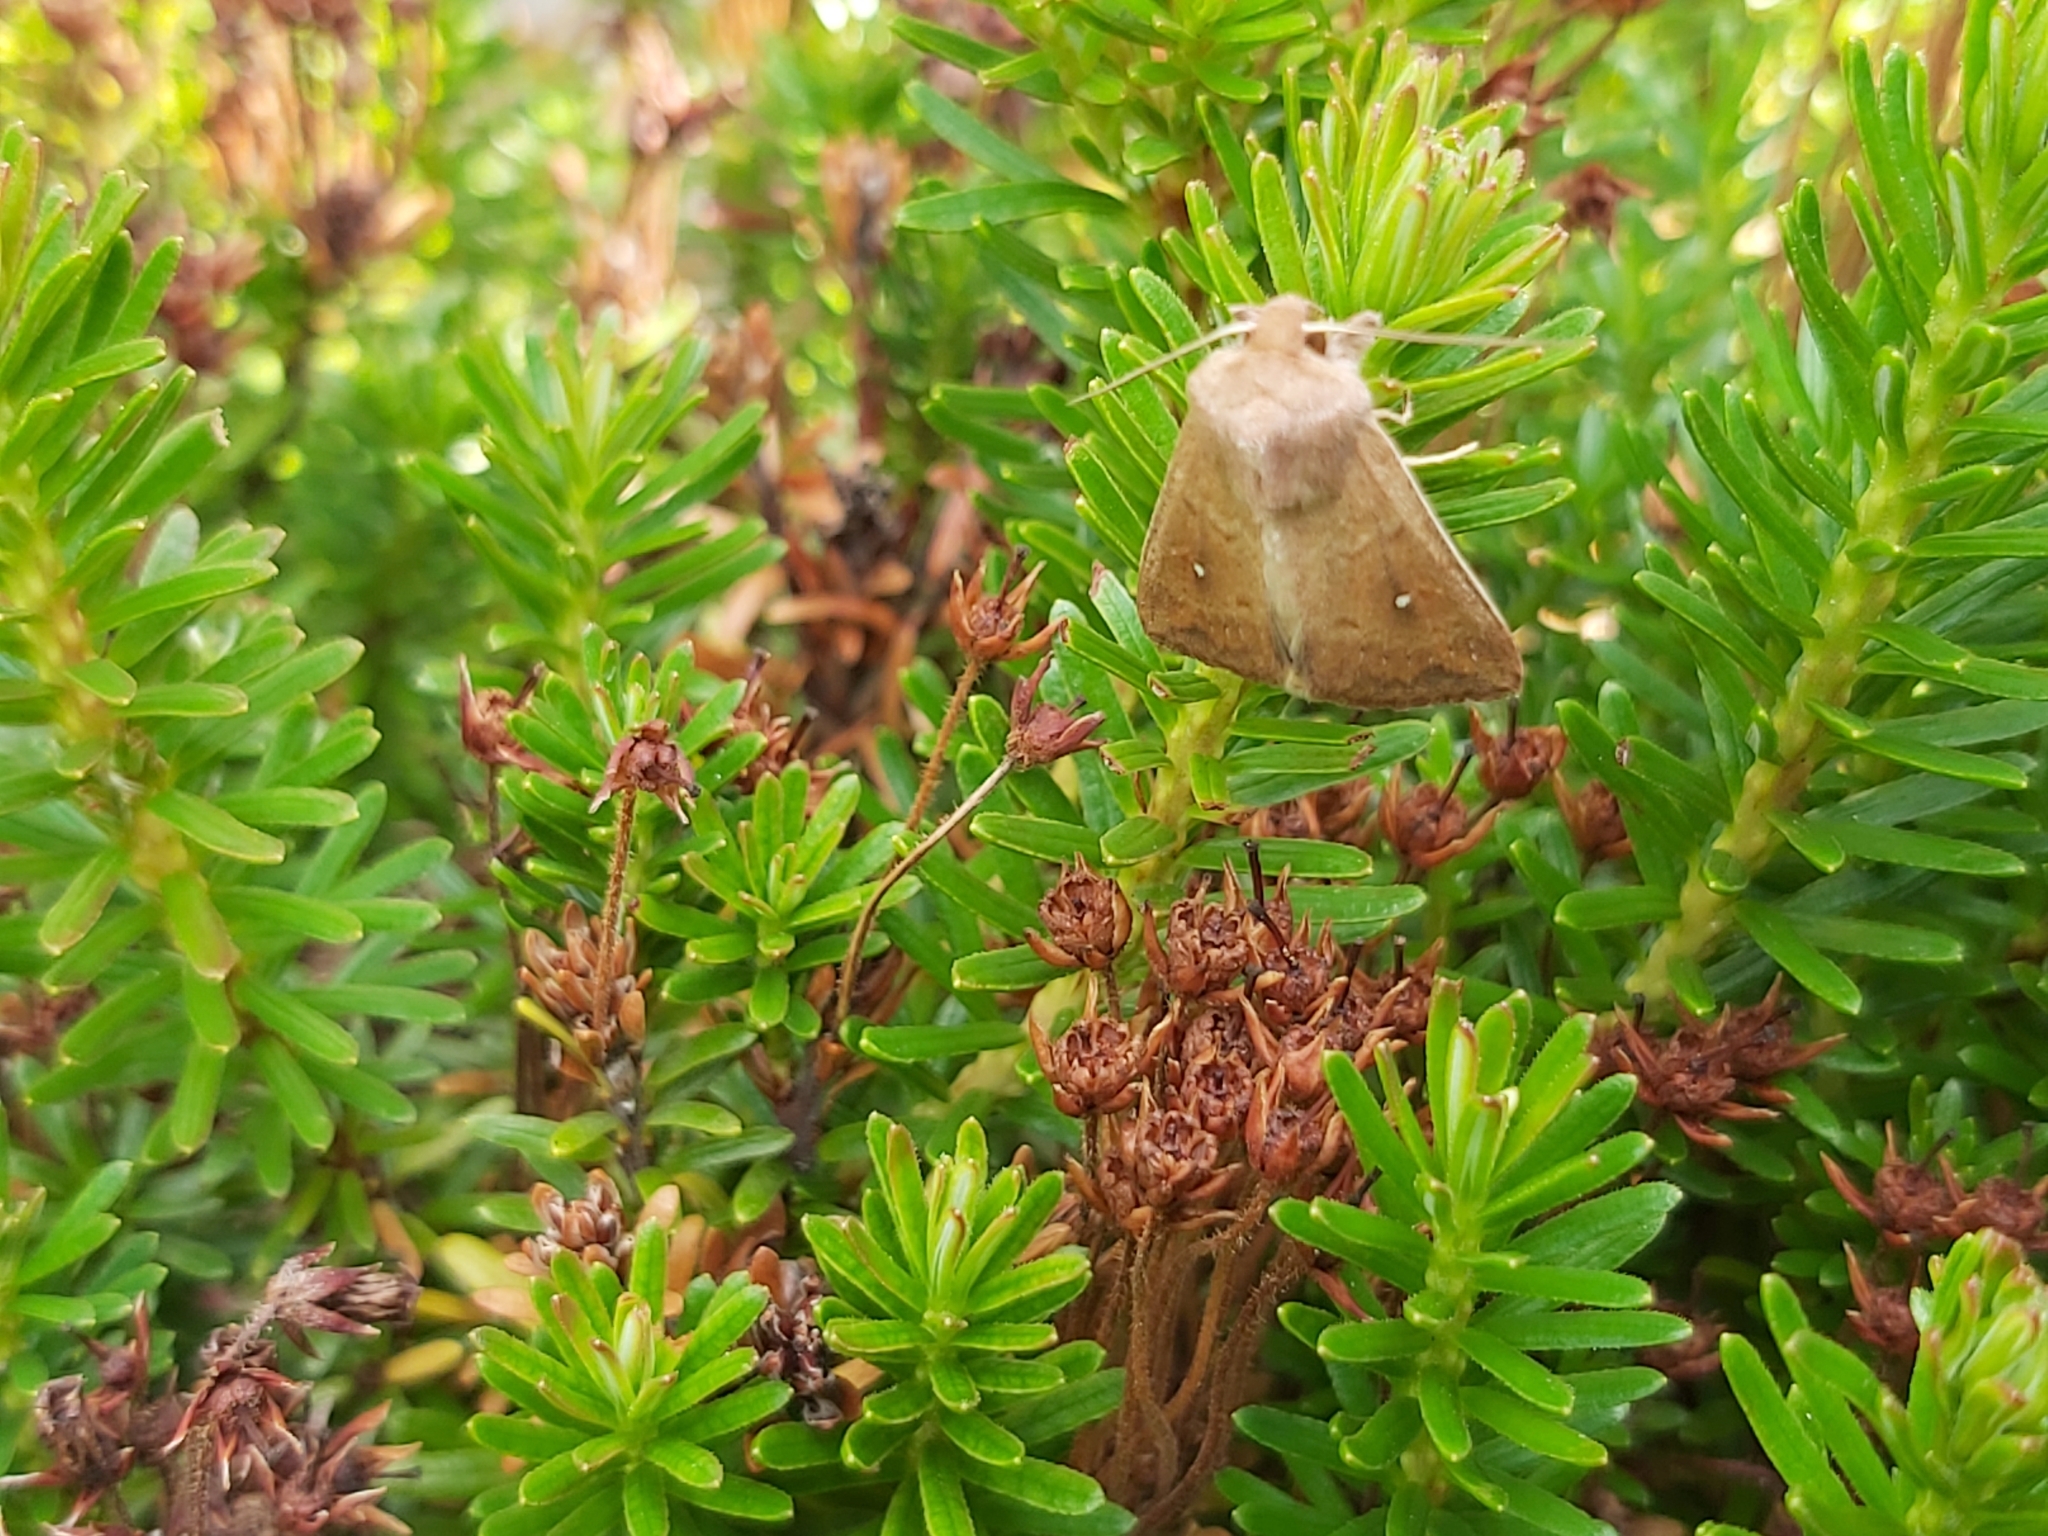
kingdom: Animalia
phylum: Arthropoda
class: Insecta
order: Lepidoptera
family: Noctuidae
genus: Mythimna
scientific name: Mythimna albipuncta
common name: White-point
